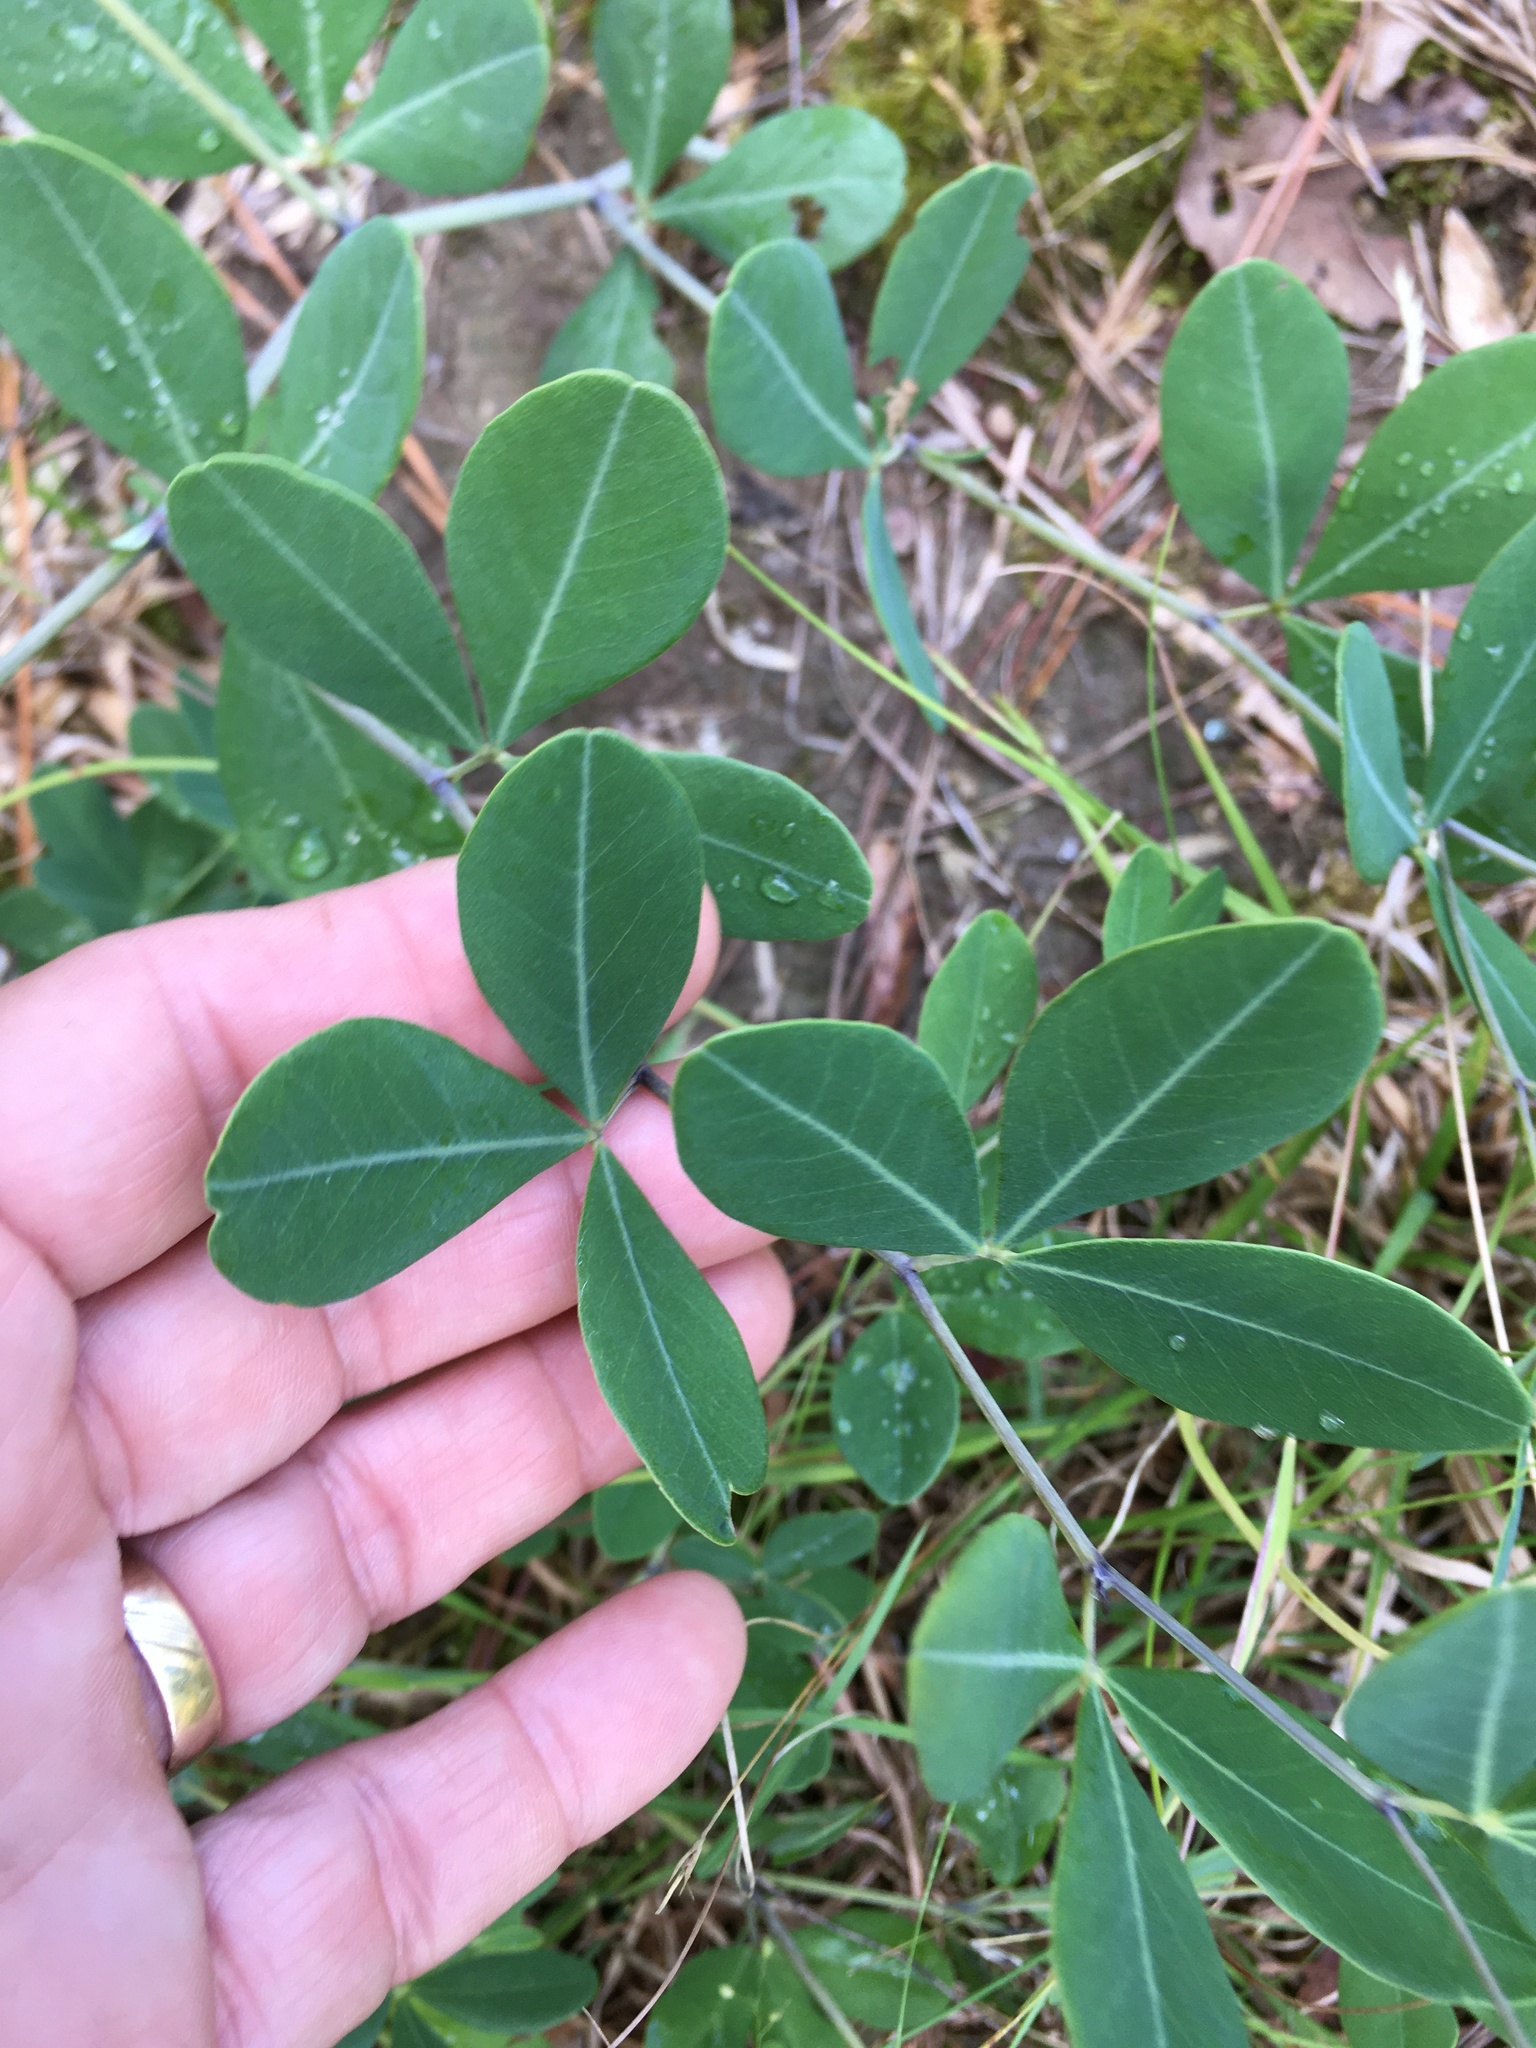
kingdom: Plantae
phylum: Tracheophyta
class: Magnoliopsida
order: Fabales
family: Fabaceae
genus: Baptisia
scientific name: Baptisia alba
